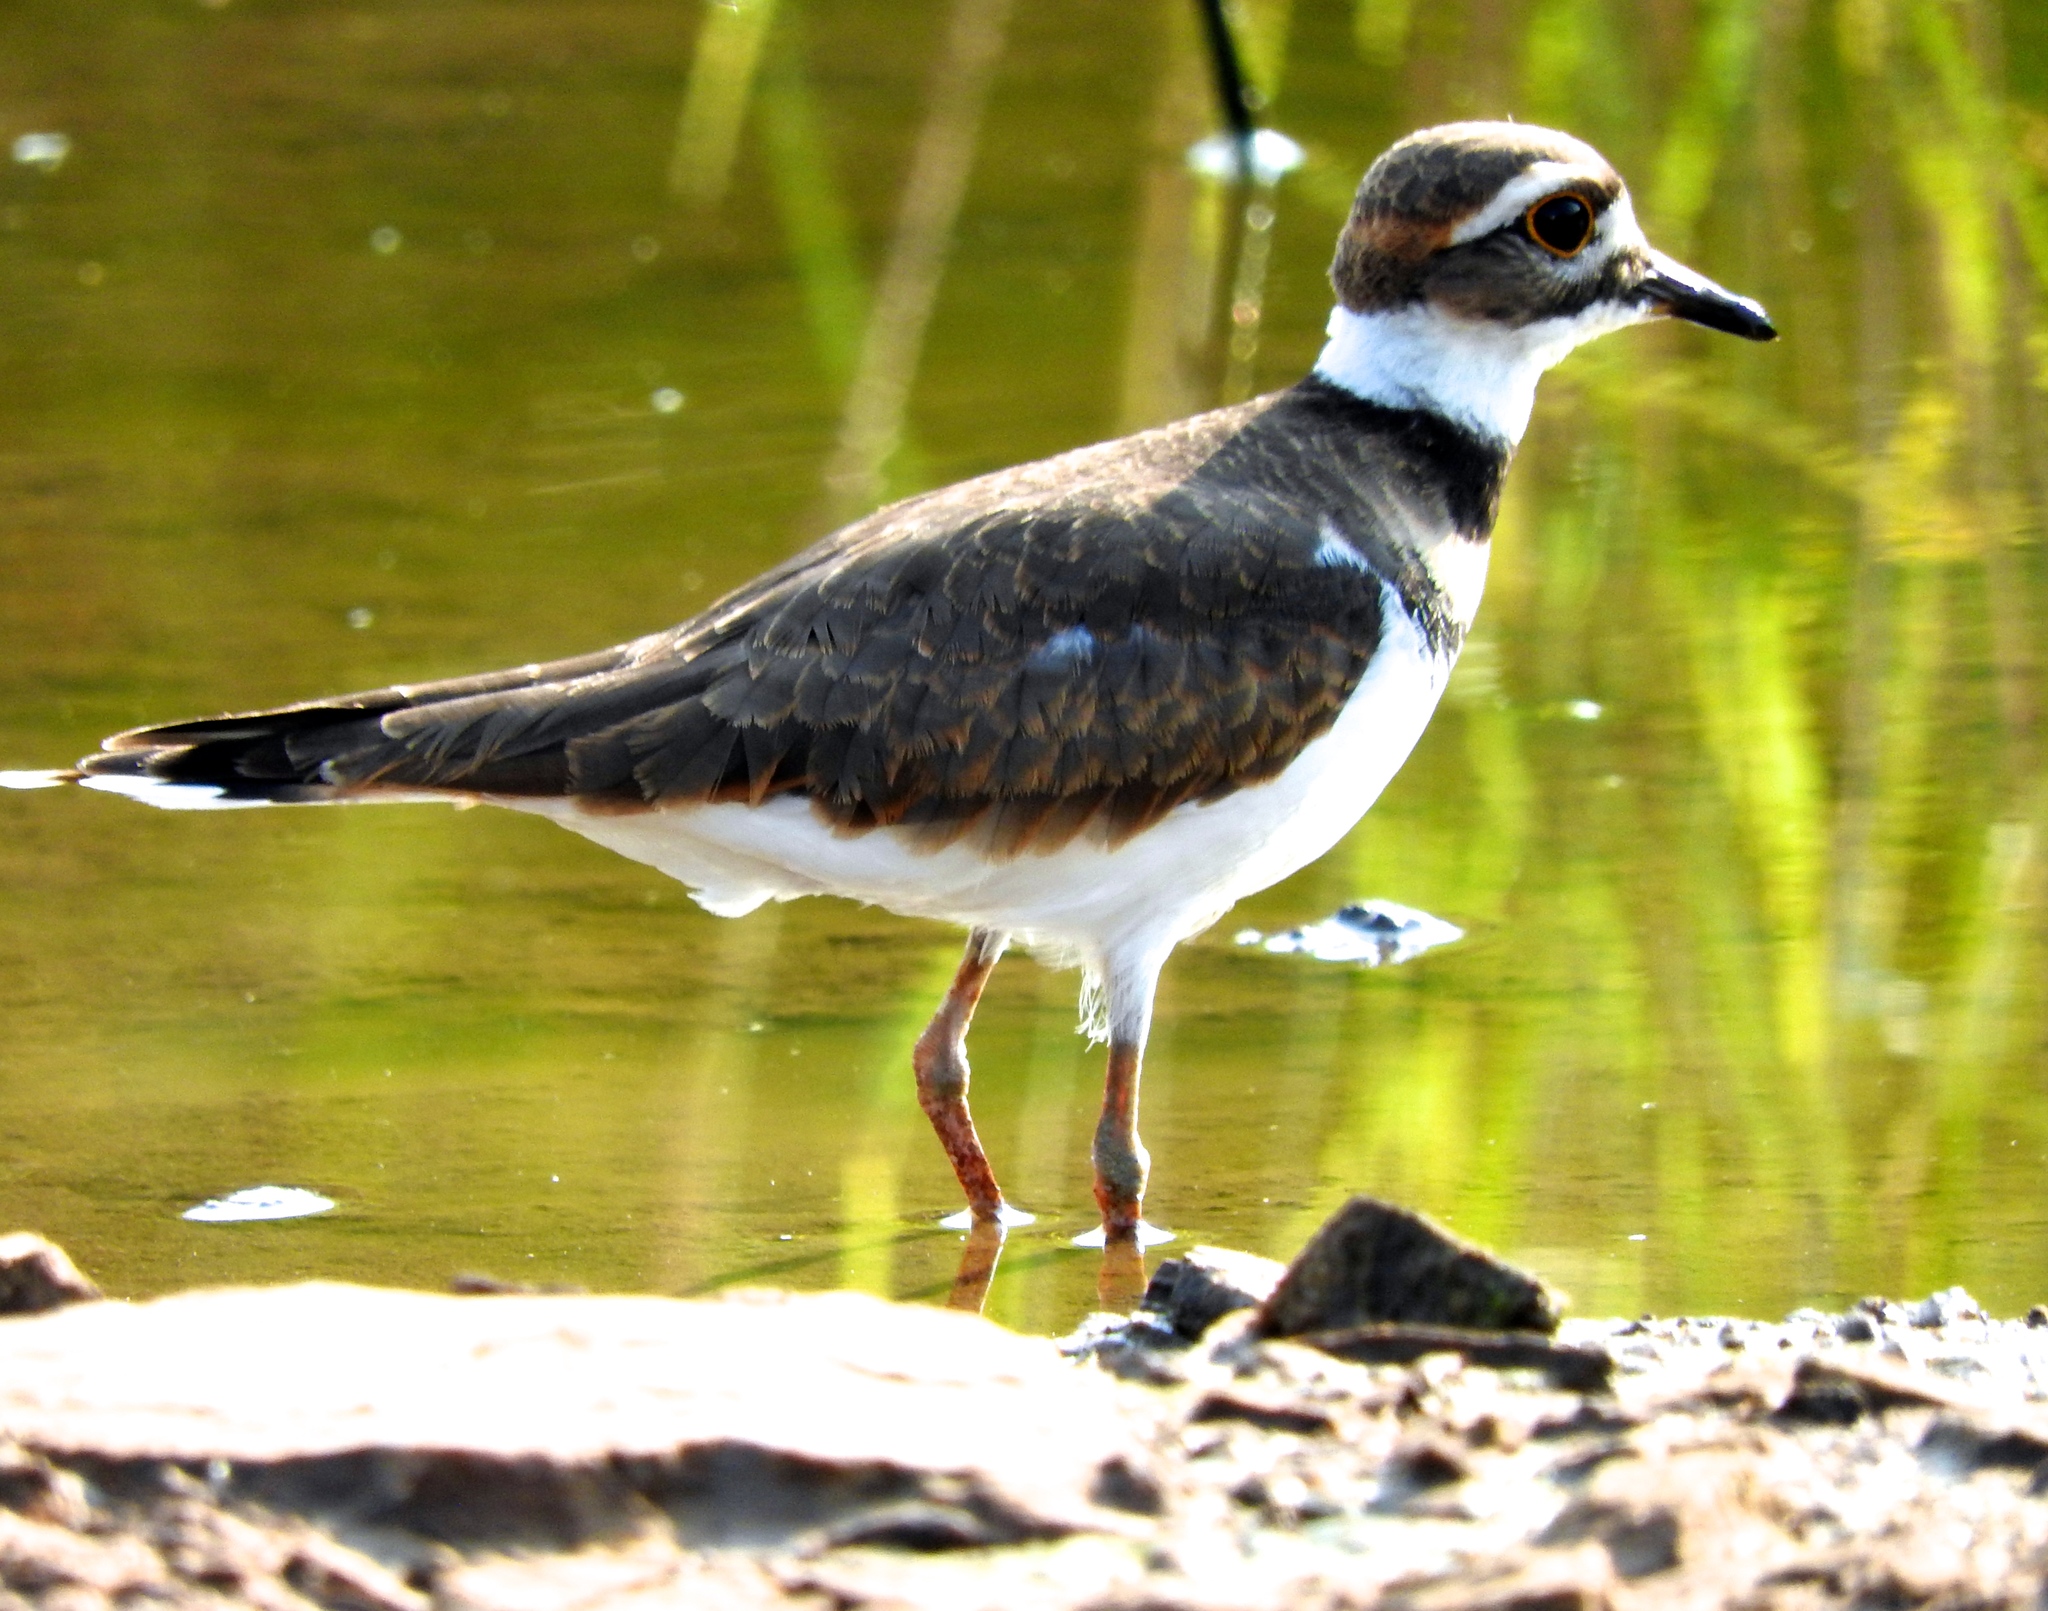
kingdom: Animalia
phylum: Chordata
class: Aves
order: Charadriiformes
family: Charadriidae
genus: Charadrius
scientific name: Charadrius vociferus
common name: Killdeer
